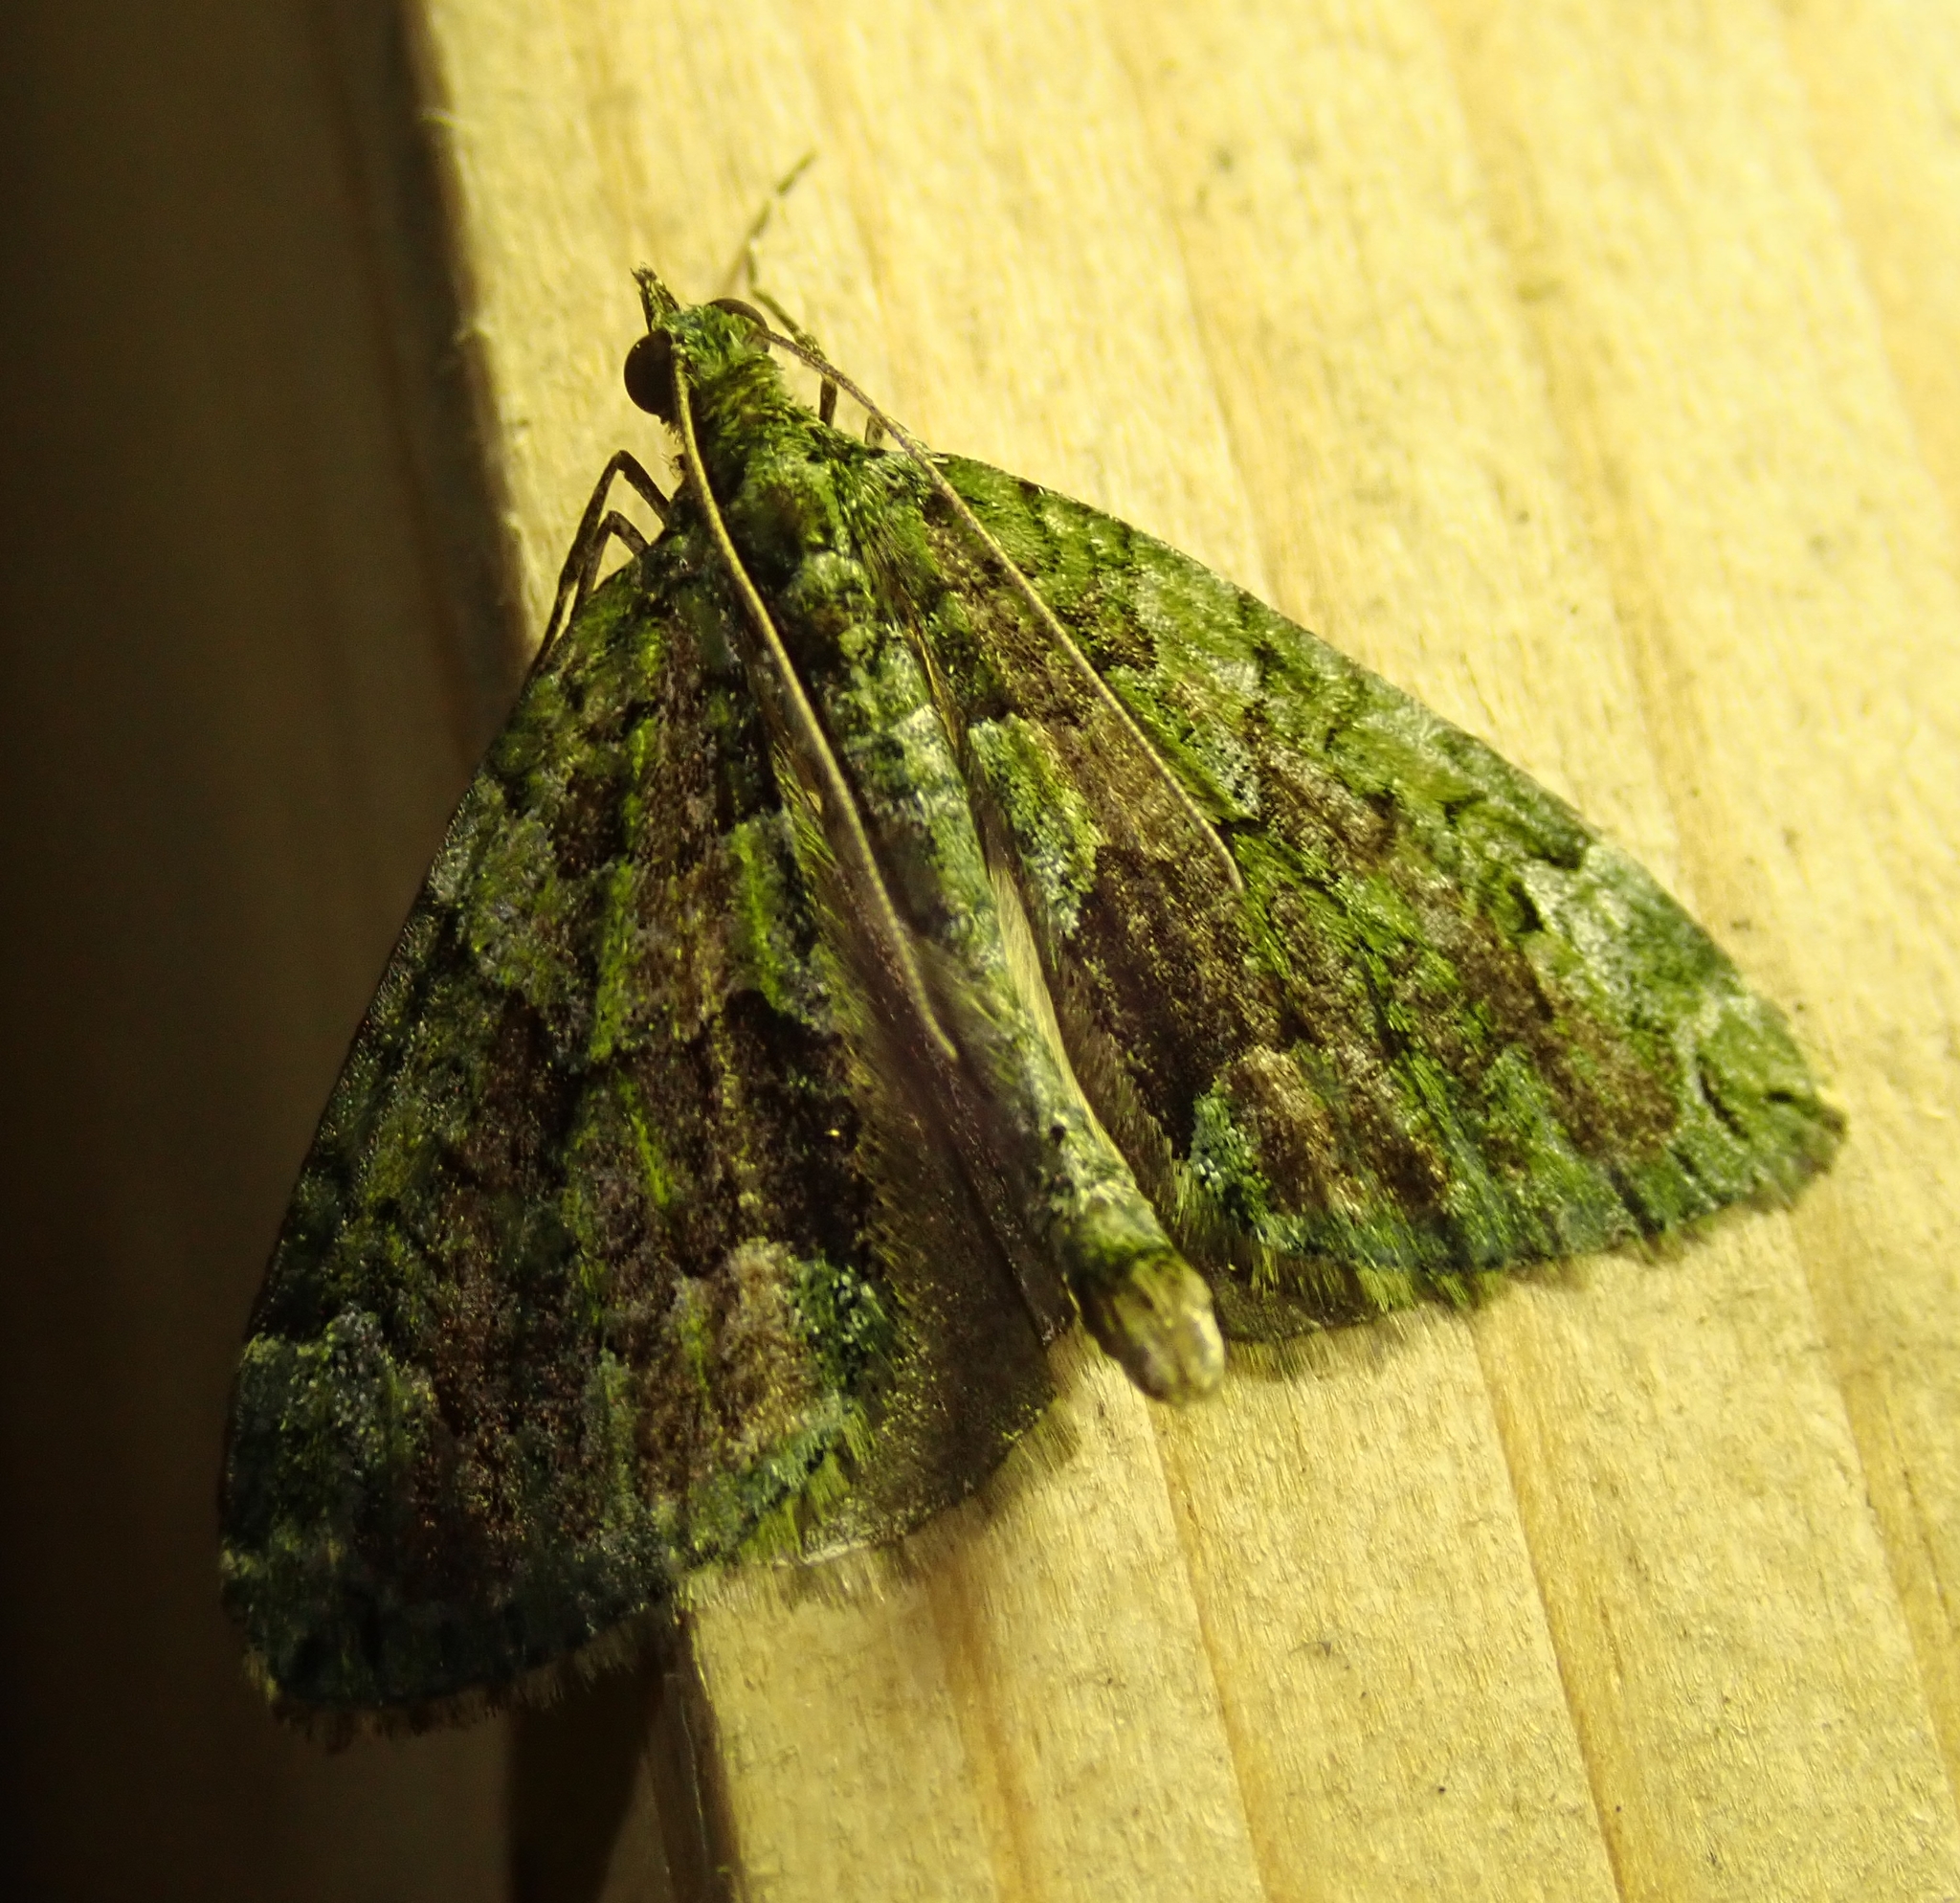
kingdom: Animalia
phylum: Arthropoda
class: Insecta
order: Lepidoptera
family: Geometridae
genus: Chloroclysta
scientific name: Chloroclysta siterata
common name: Red-green carpet
